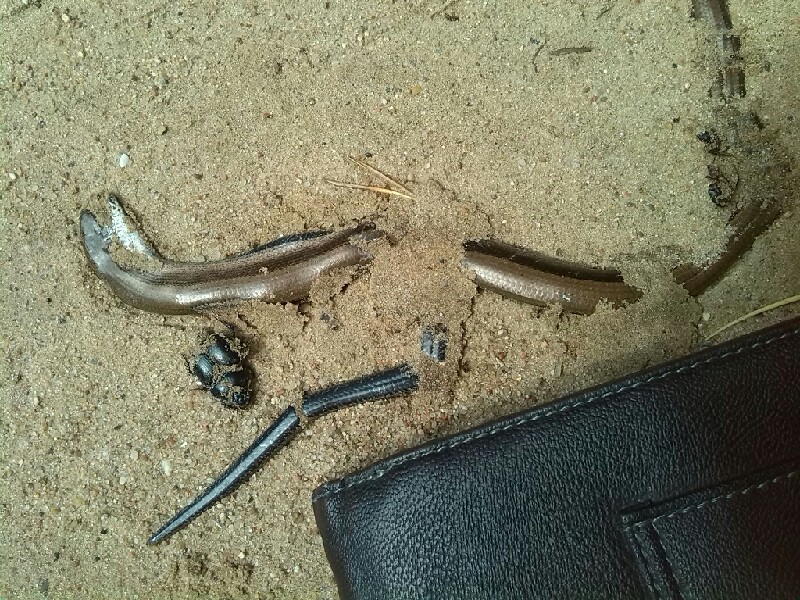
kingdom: Animalia
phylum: Chordata
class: Squamata
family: Anguidae
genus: Anguis
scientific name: Anguis colchica
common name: Slow worm
